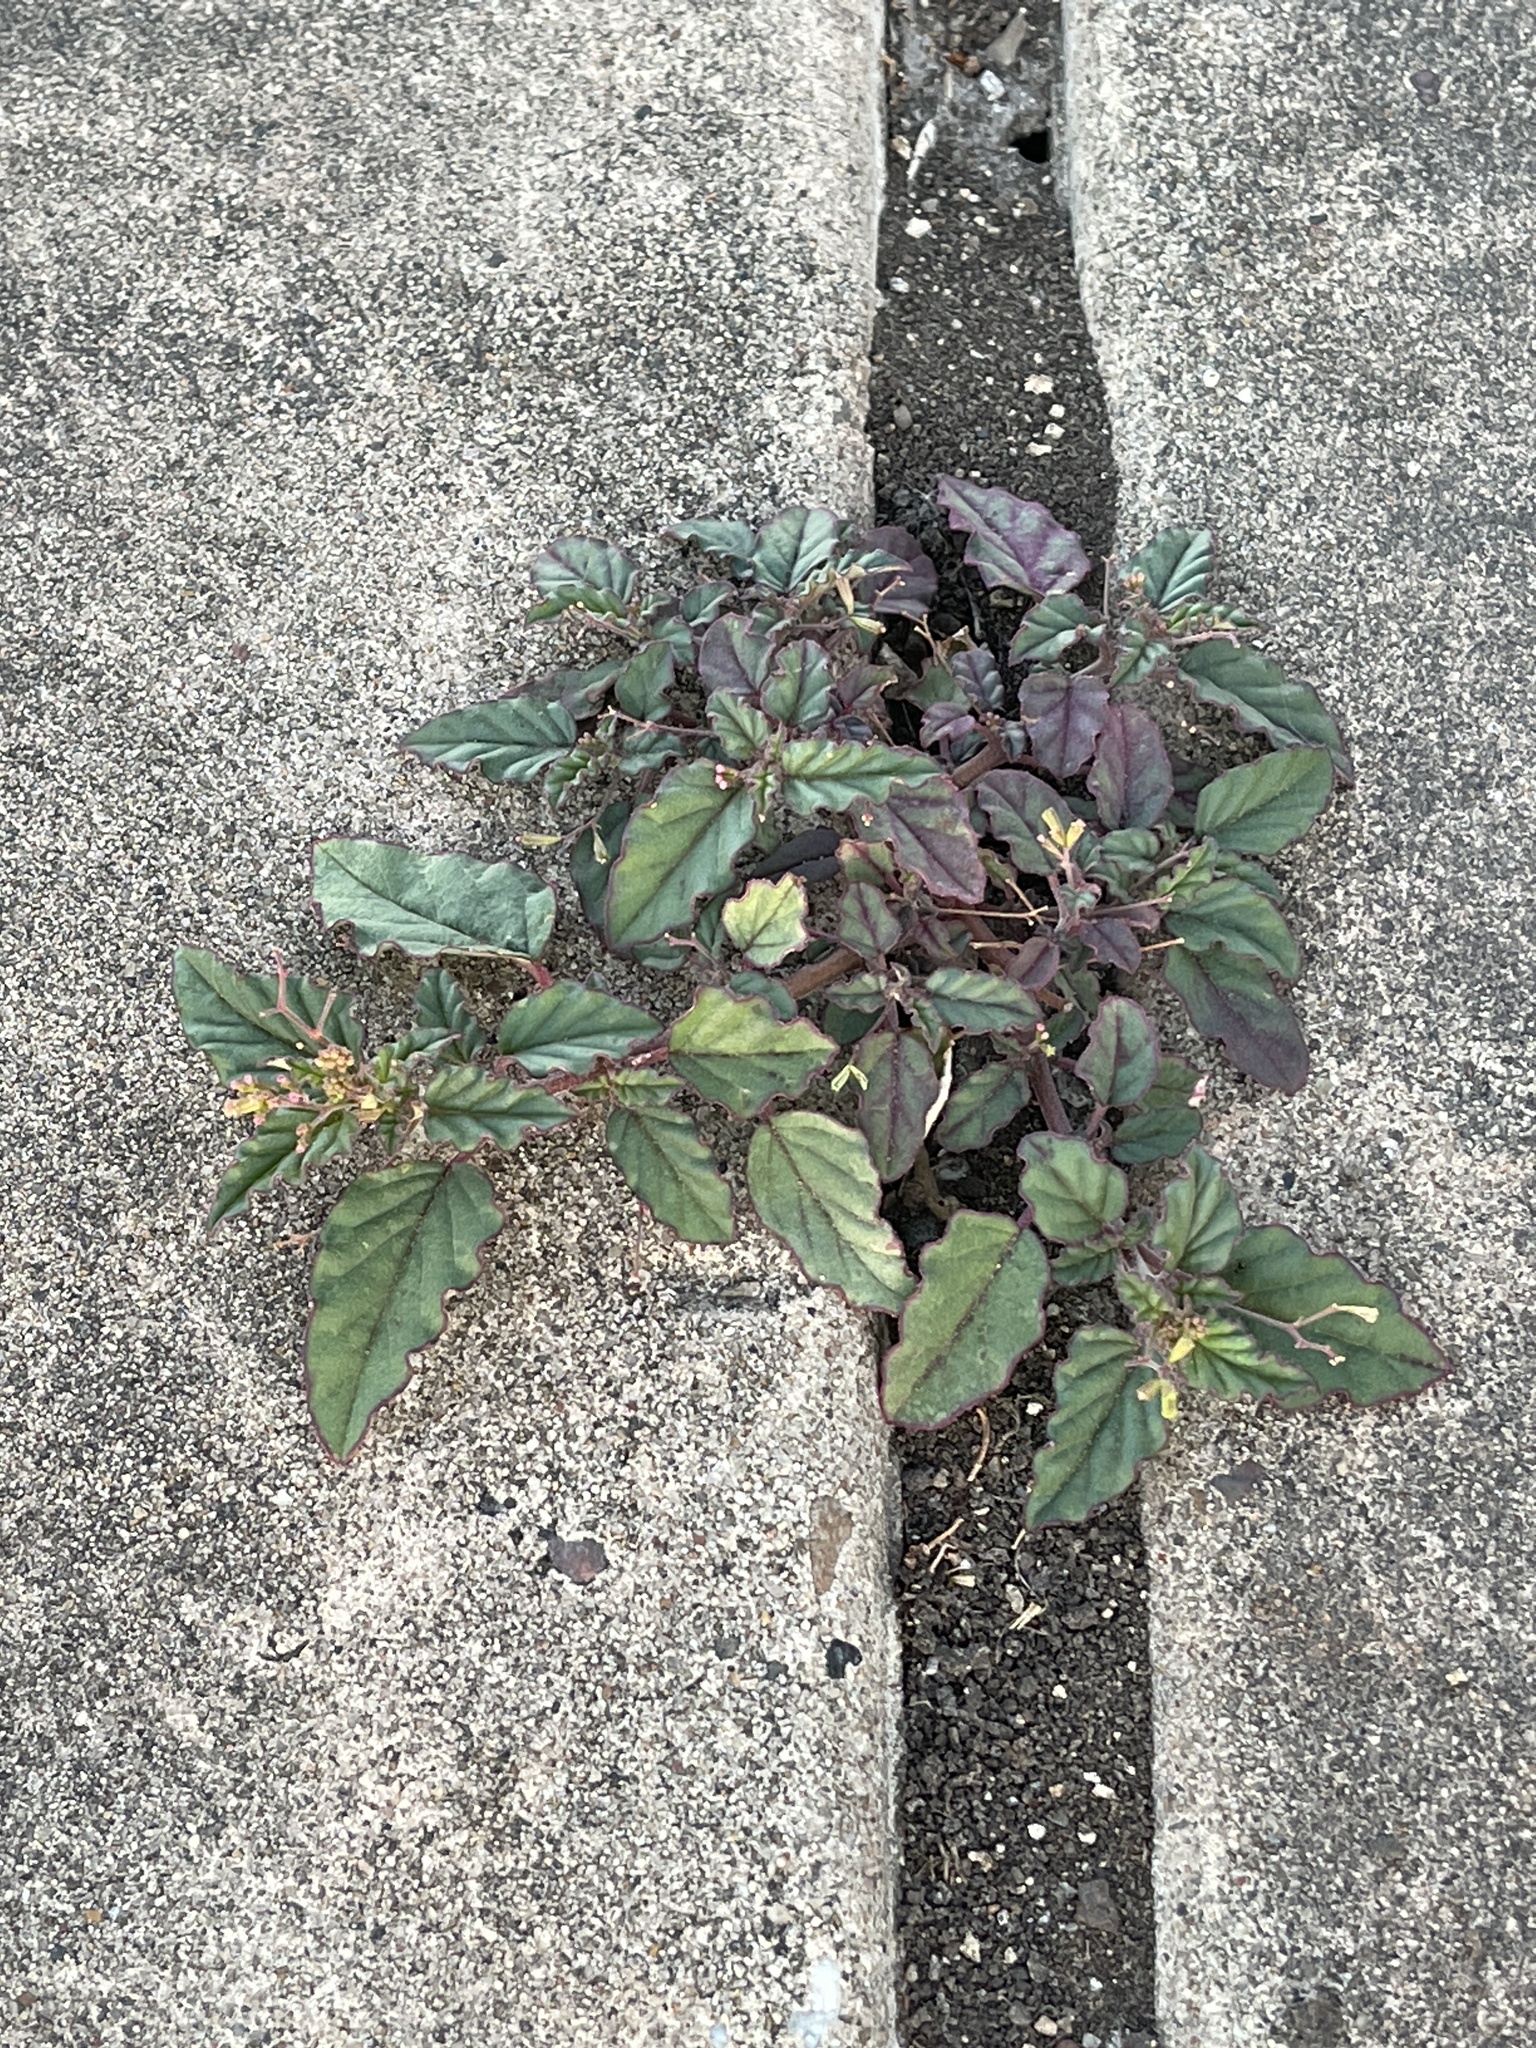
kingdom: Plantae
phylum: Tracheophyta
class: Magnoliopsida
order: Caryophyllales
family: Nyctaginaceae
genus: Boerhavia
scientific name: Boerhavia erecta
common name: Erect spiderling
